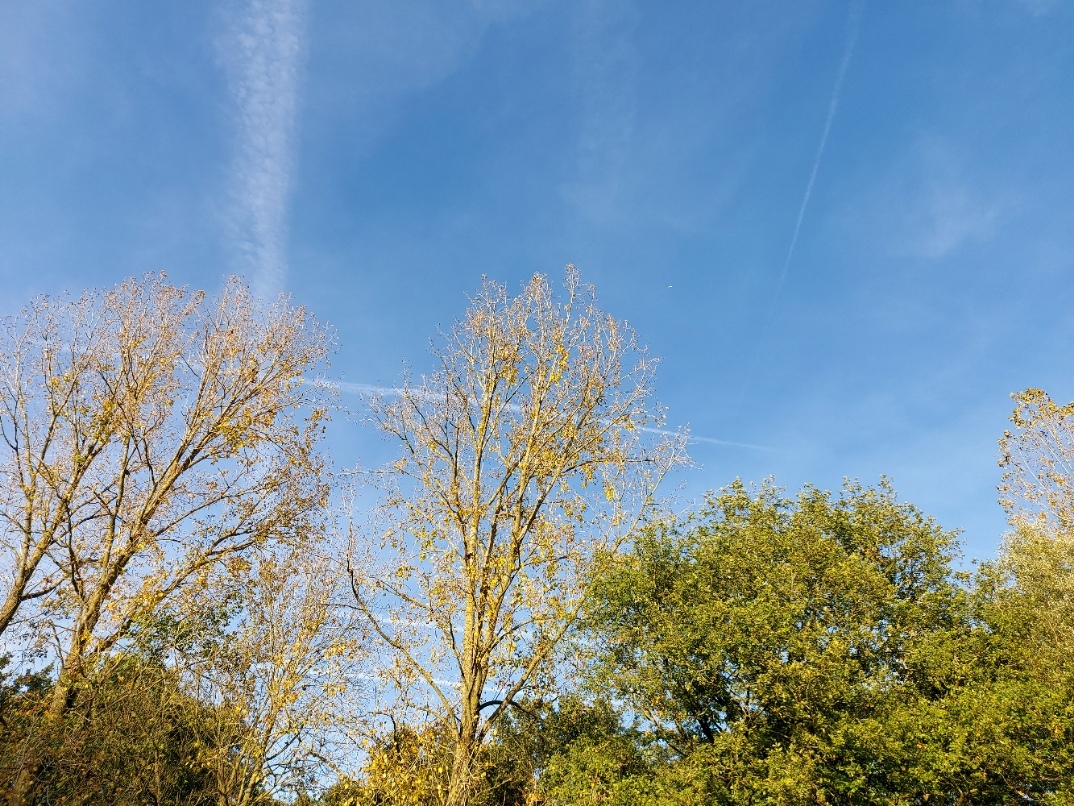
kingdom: Animalia
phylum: Arthropoda
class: Insecta
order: Hymenoptera
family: Vespidae
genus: Vespa
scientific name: Vespa velutina
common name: Asian hornet
